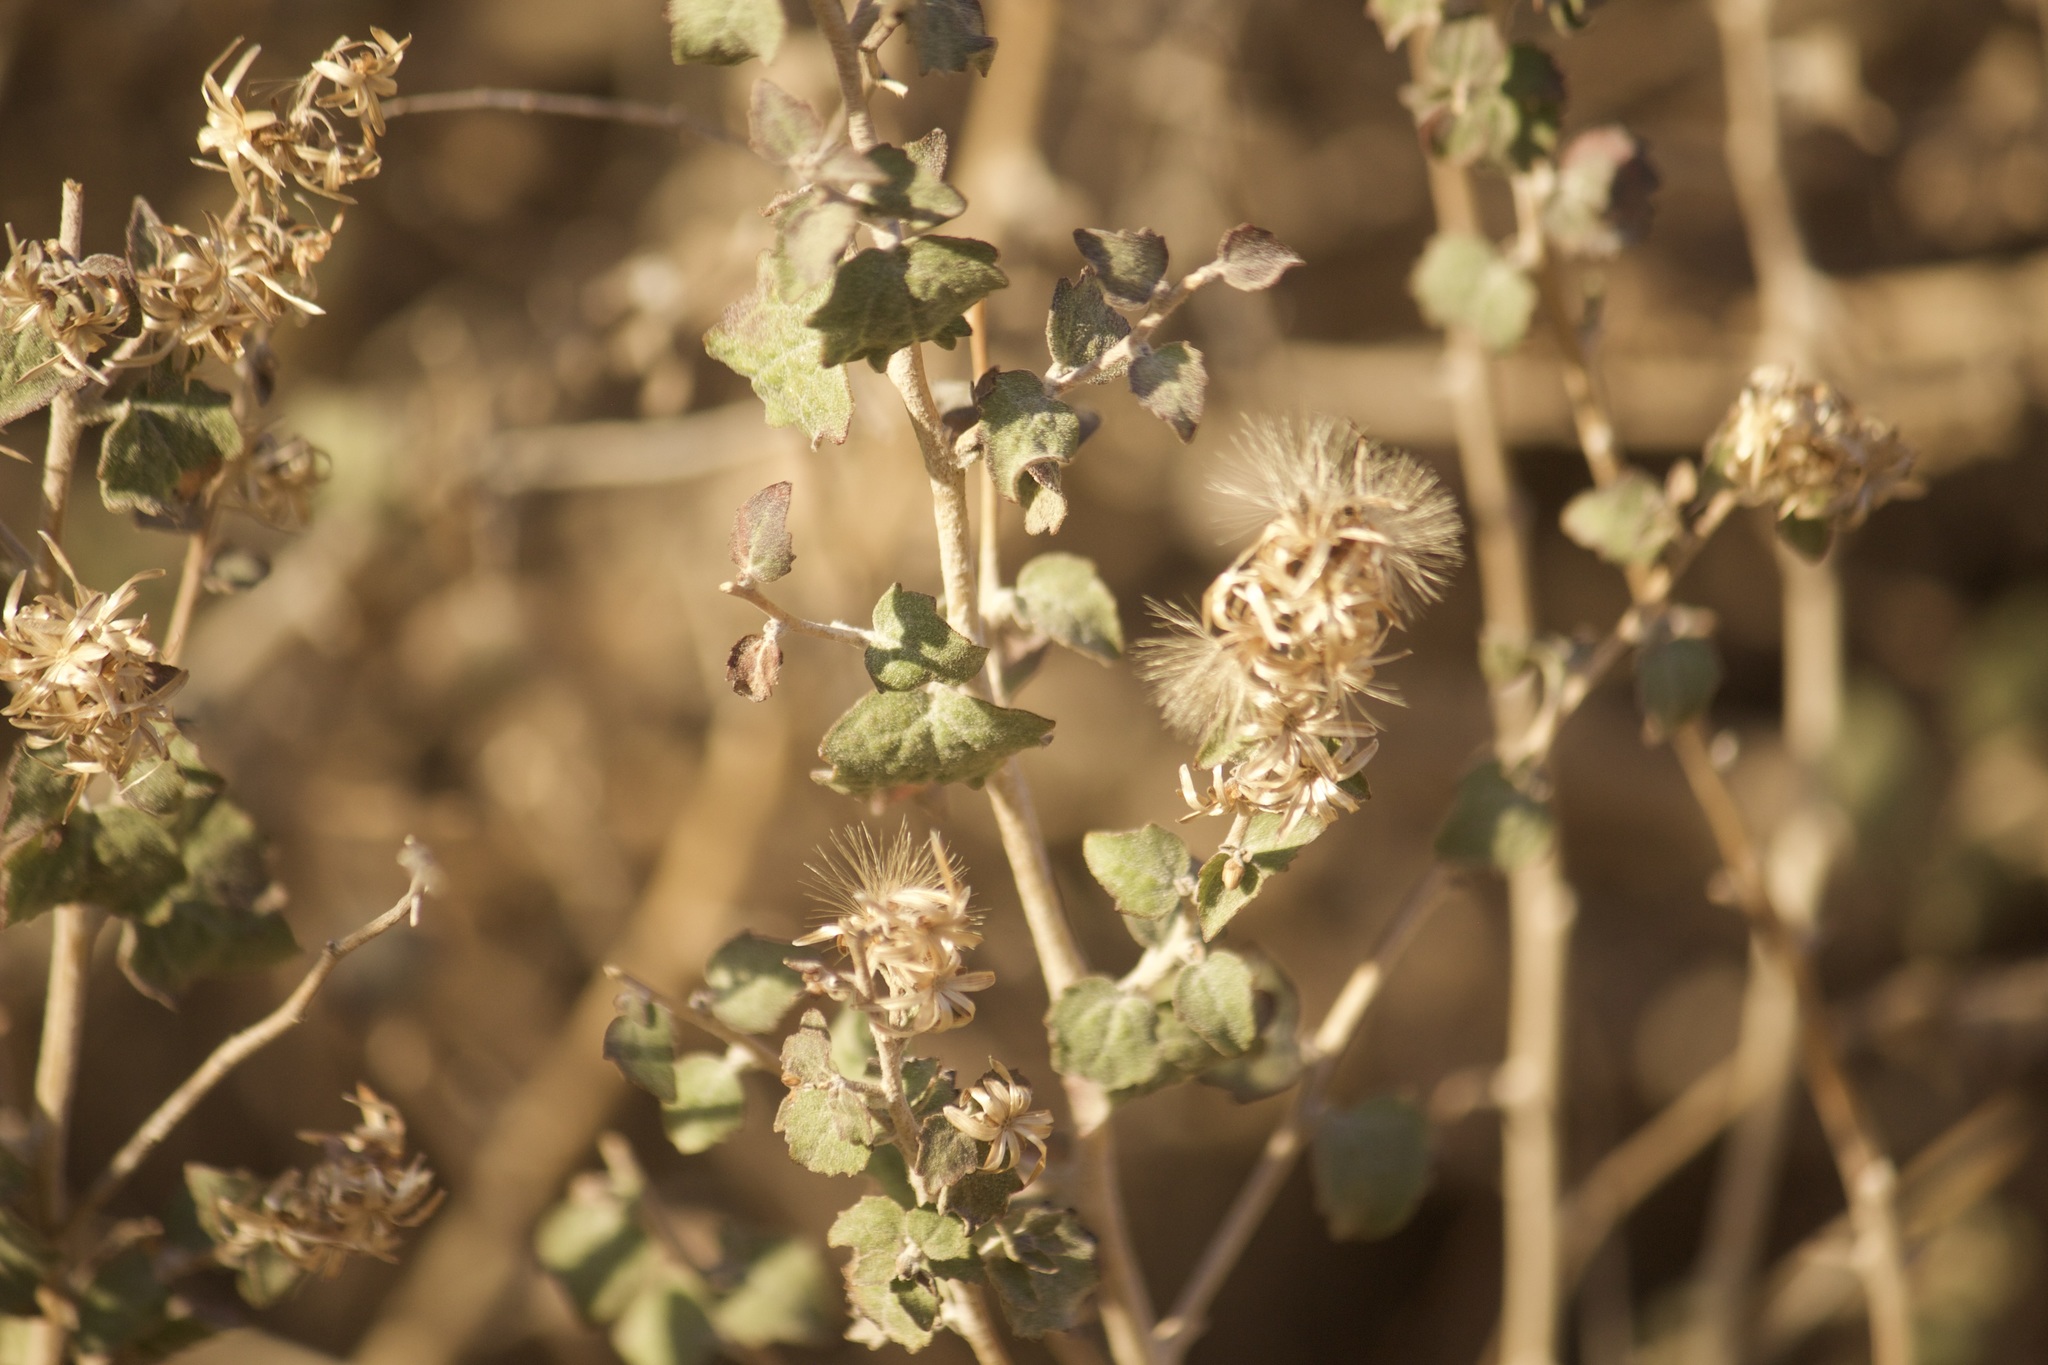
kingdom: Plantae
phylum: Tracheophyta
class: Magnoliopsida
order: Asterales
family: Asteraceae
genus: Brickellia
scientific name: Brickellia californica
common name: California brickellbush
